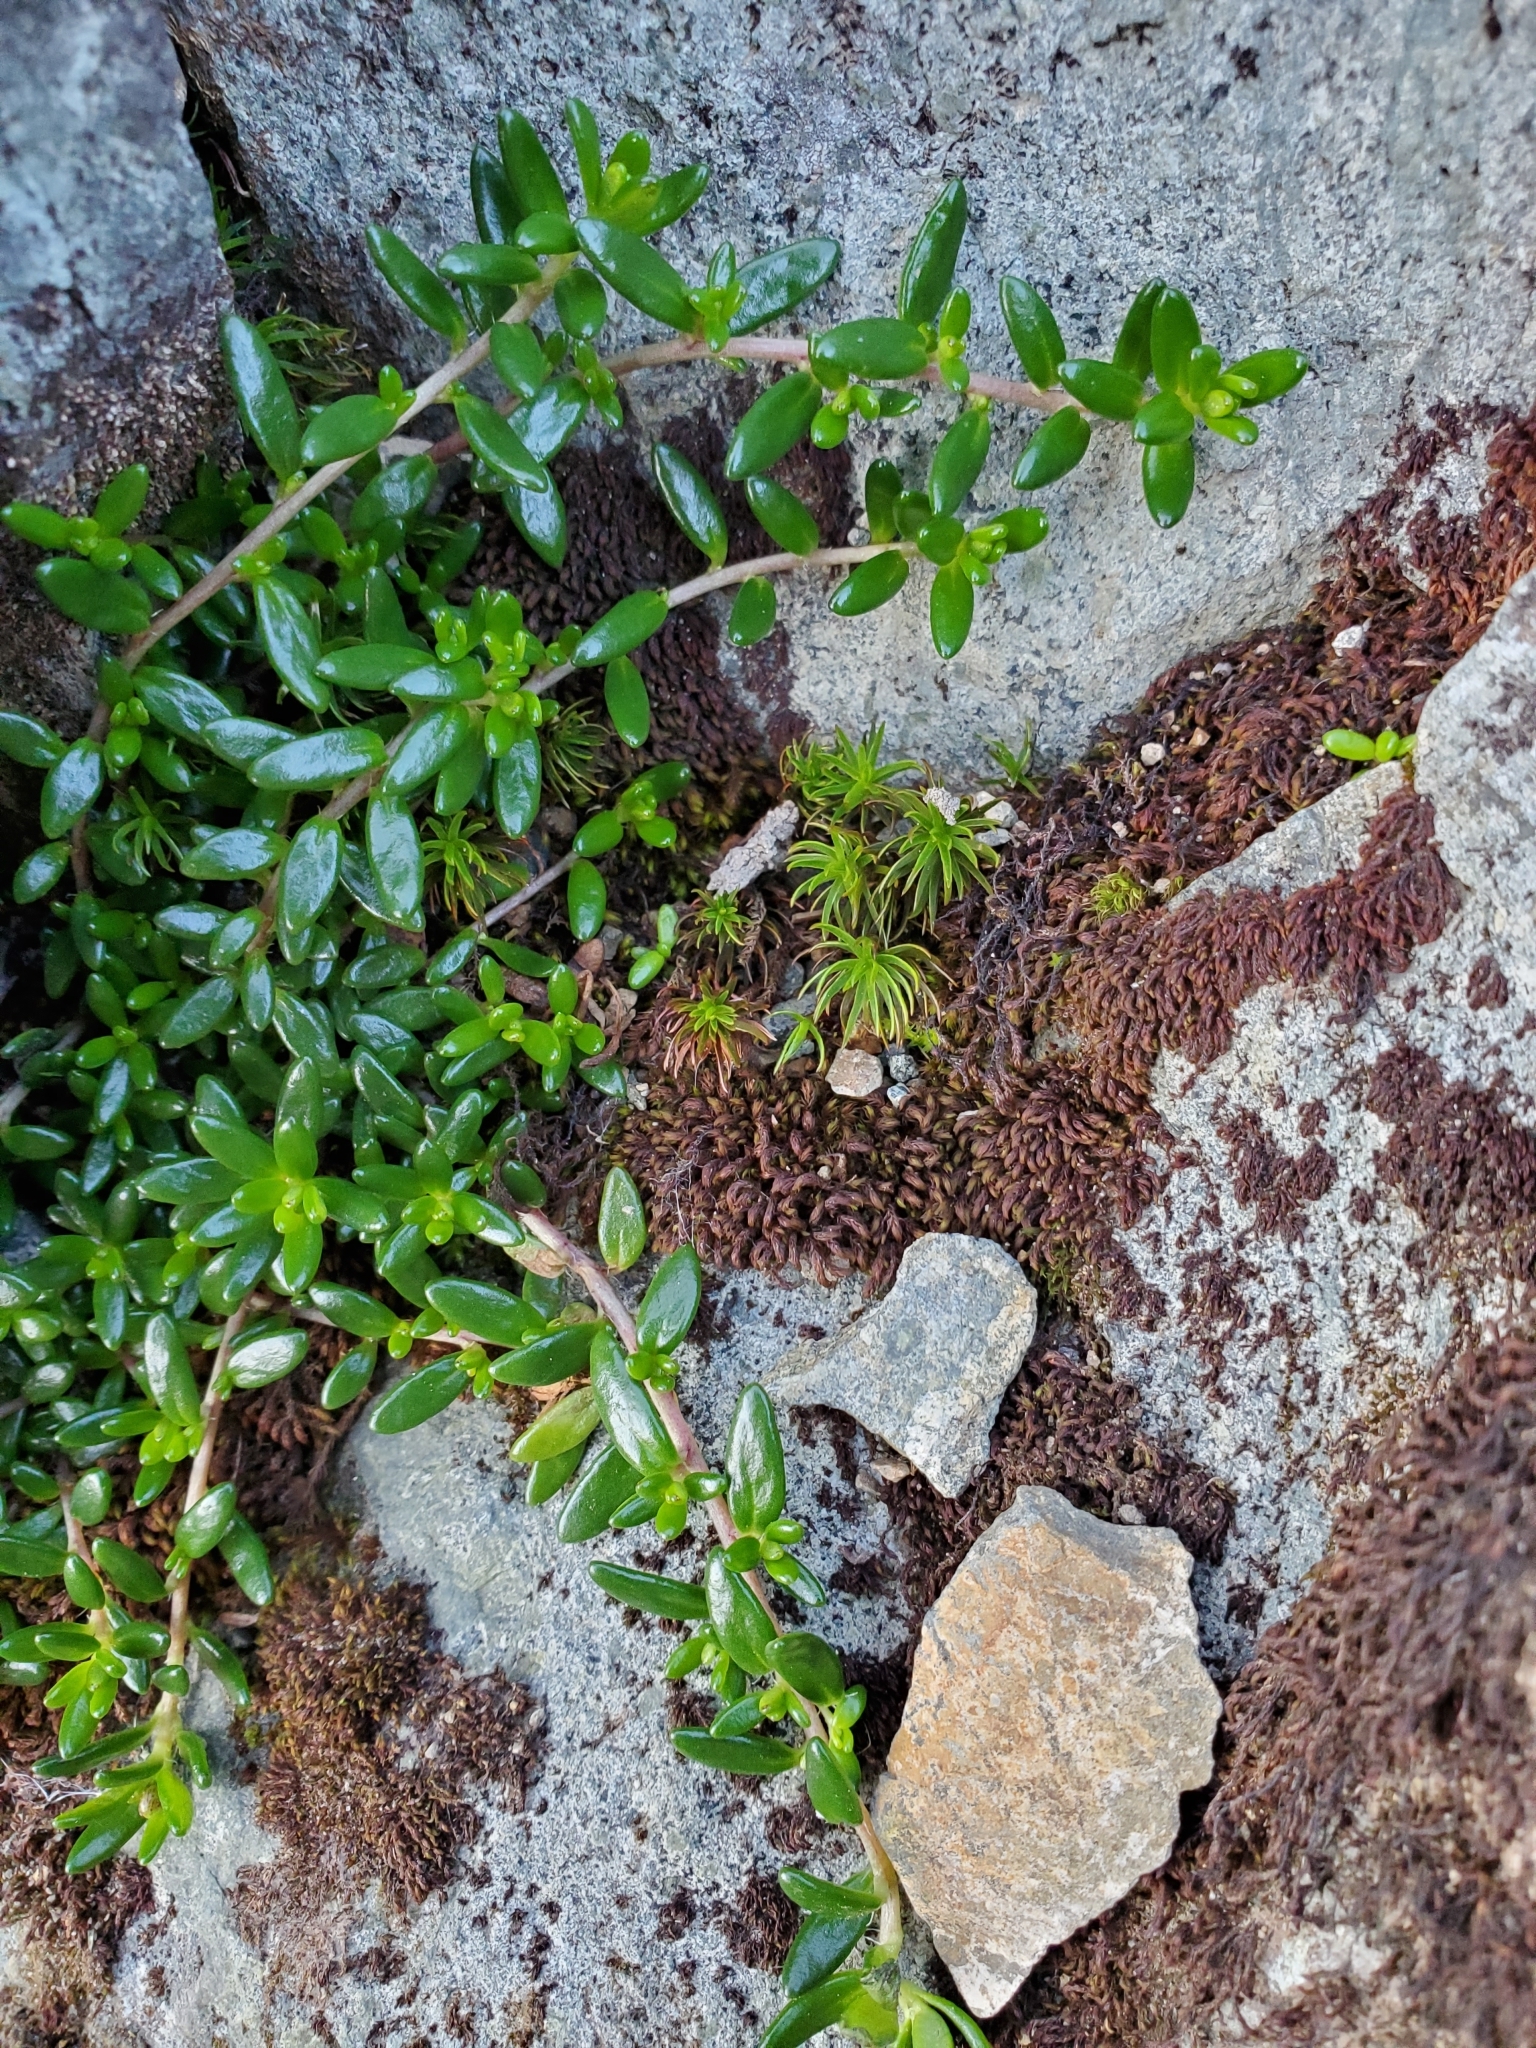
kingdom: Plantae
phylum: Tracheophyta
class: Magnoliopsida
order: Saxifragales
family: Saxifragaceae
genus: Micranthes
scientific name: Micranthes tolmiei
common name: Tolmie's saxifrage
